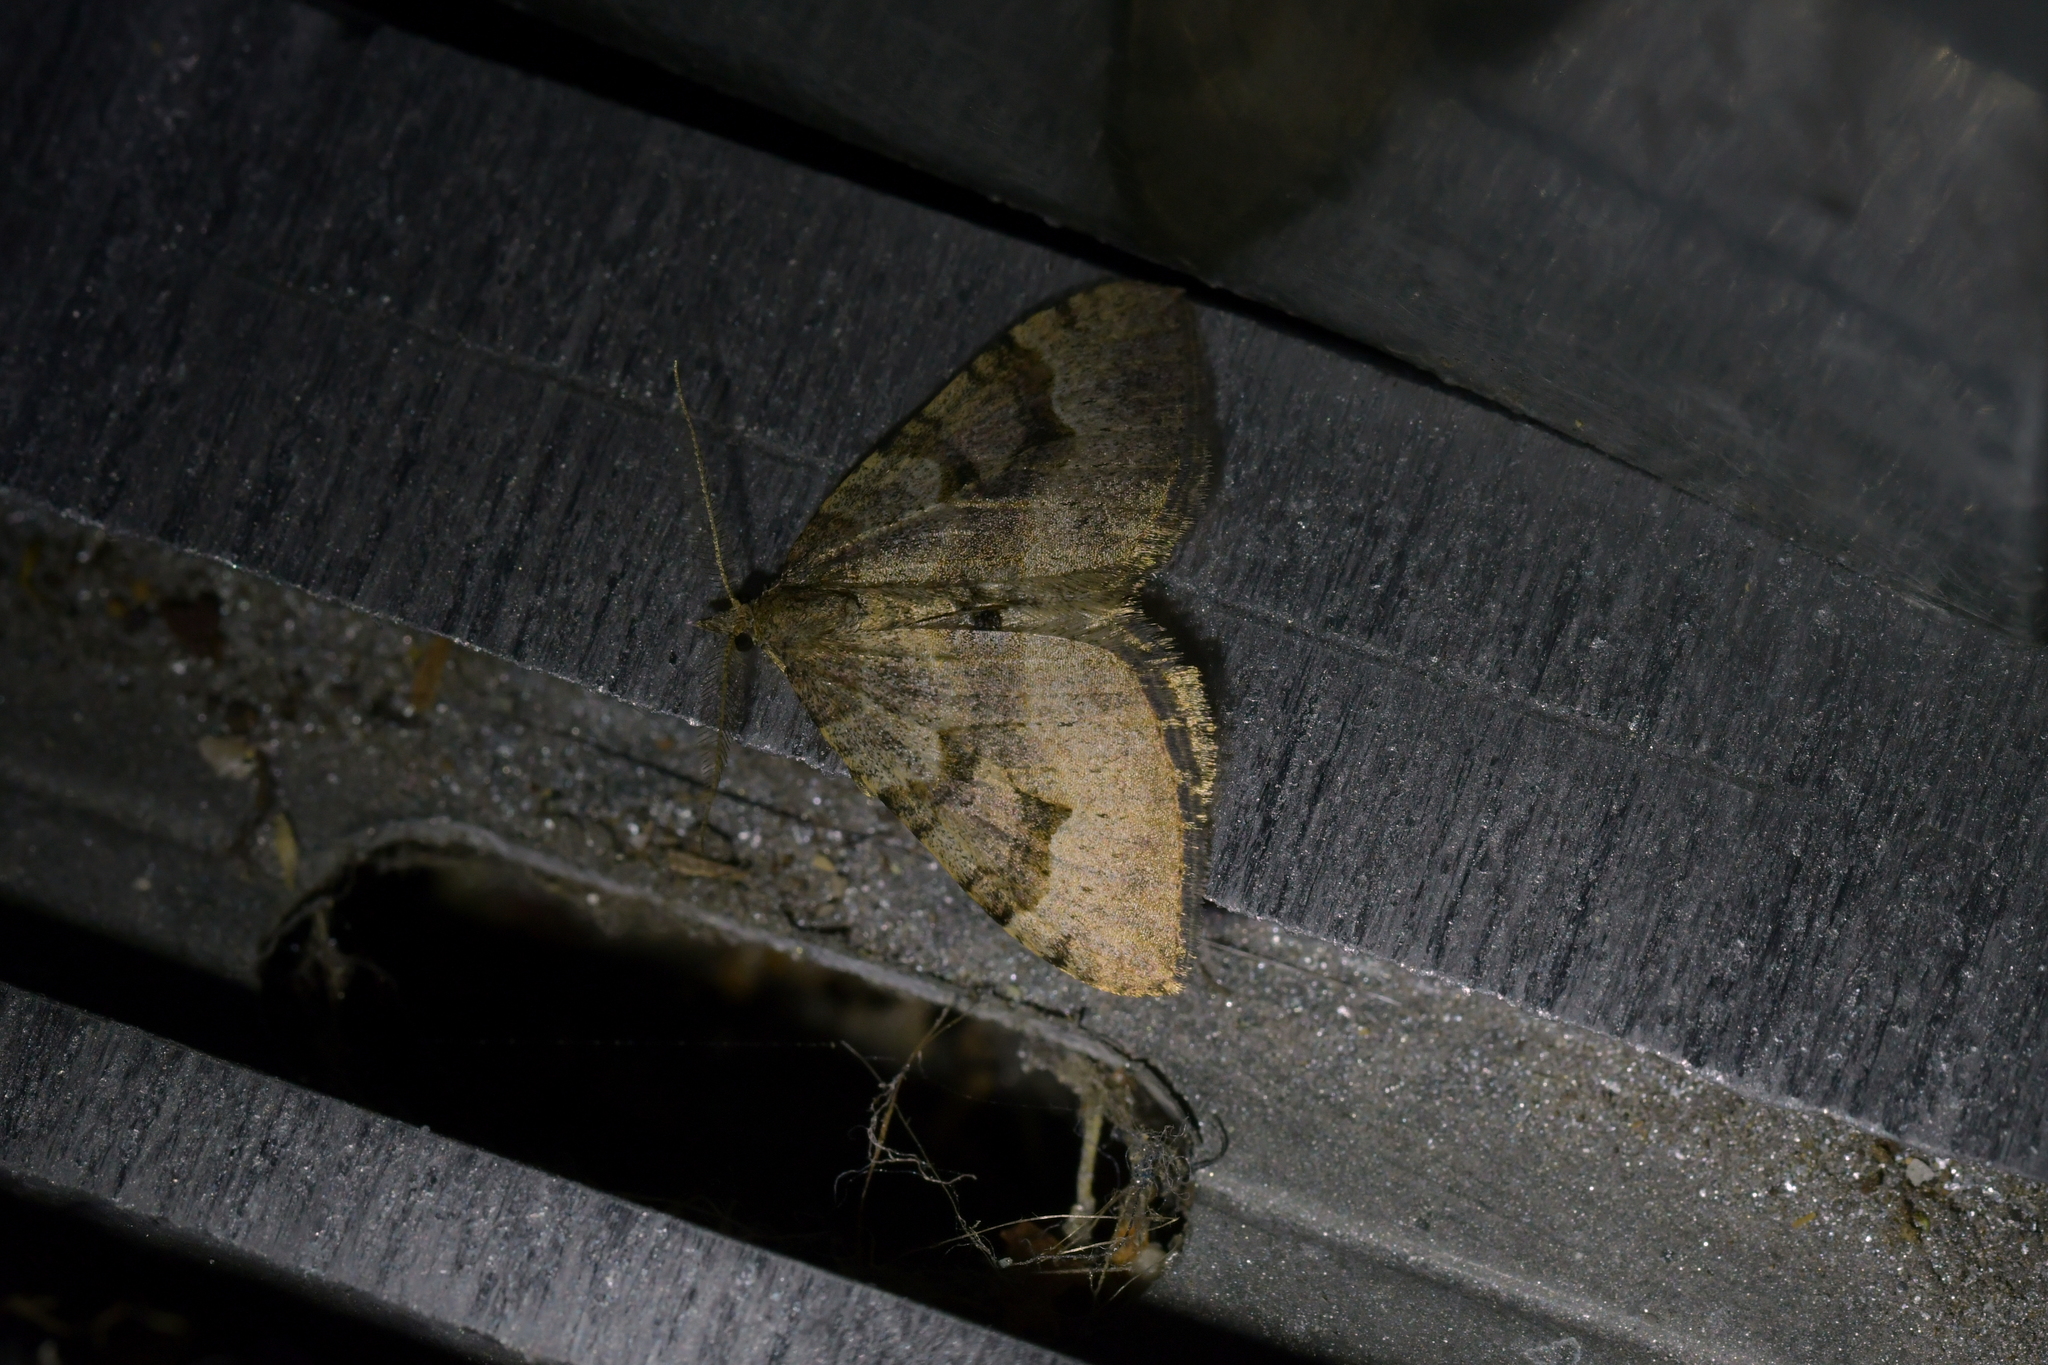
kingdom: Animalia
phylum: Arthropoda
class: Insecta
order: Lepidoptera
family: Geometridae
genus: Epyaxa
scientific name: Epyaxa rosearia
